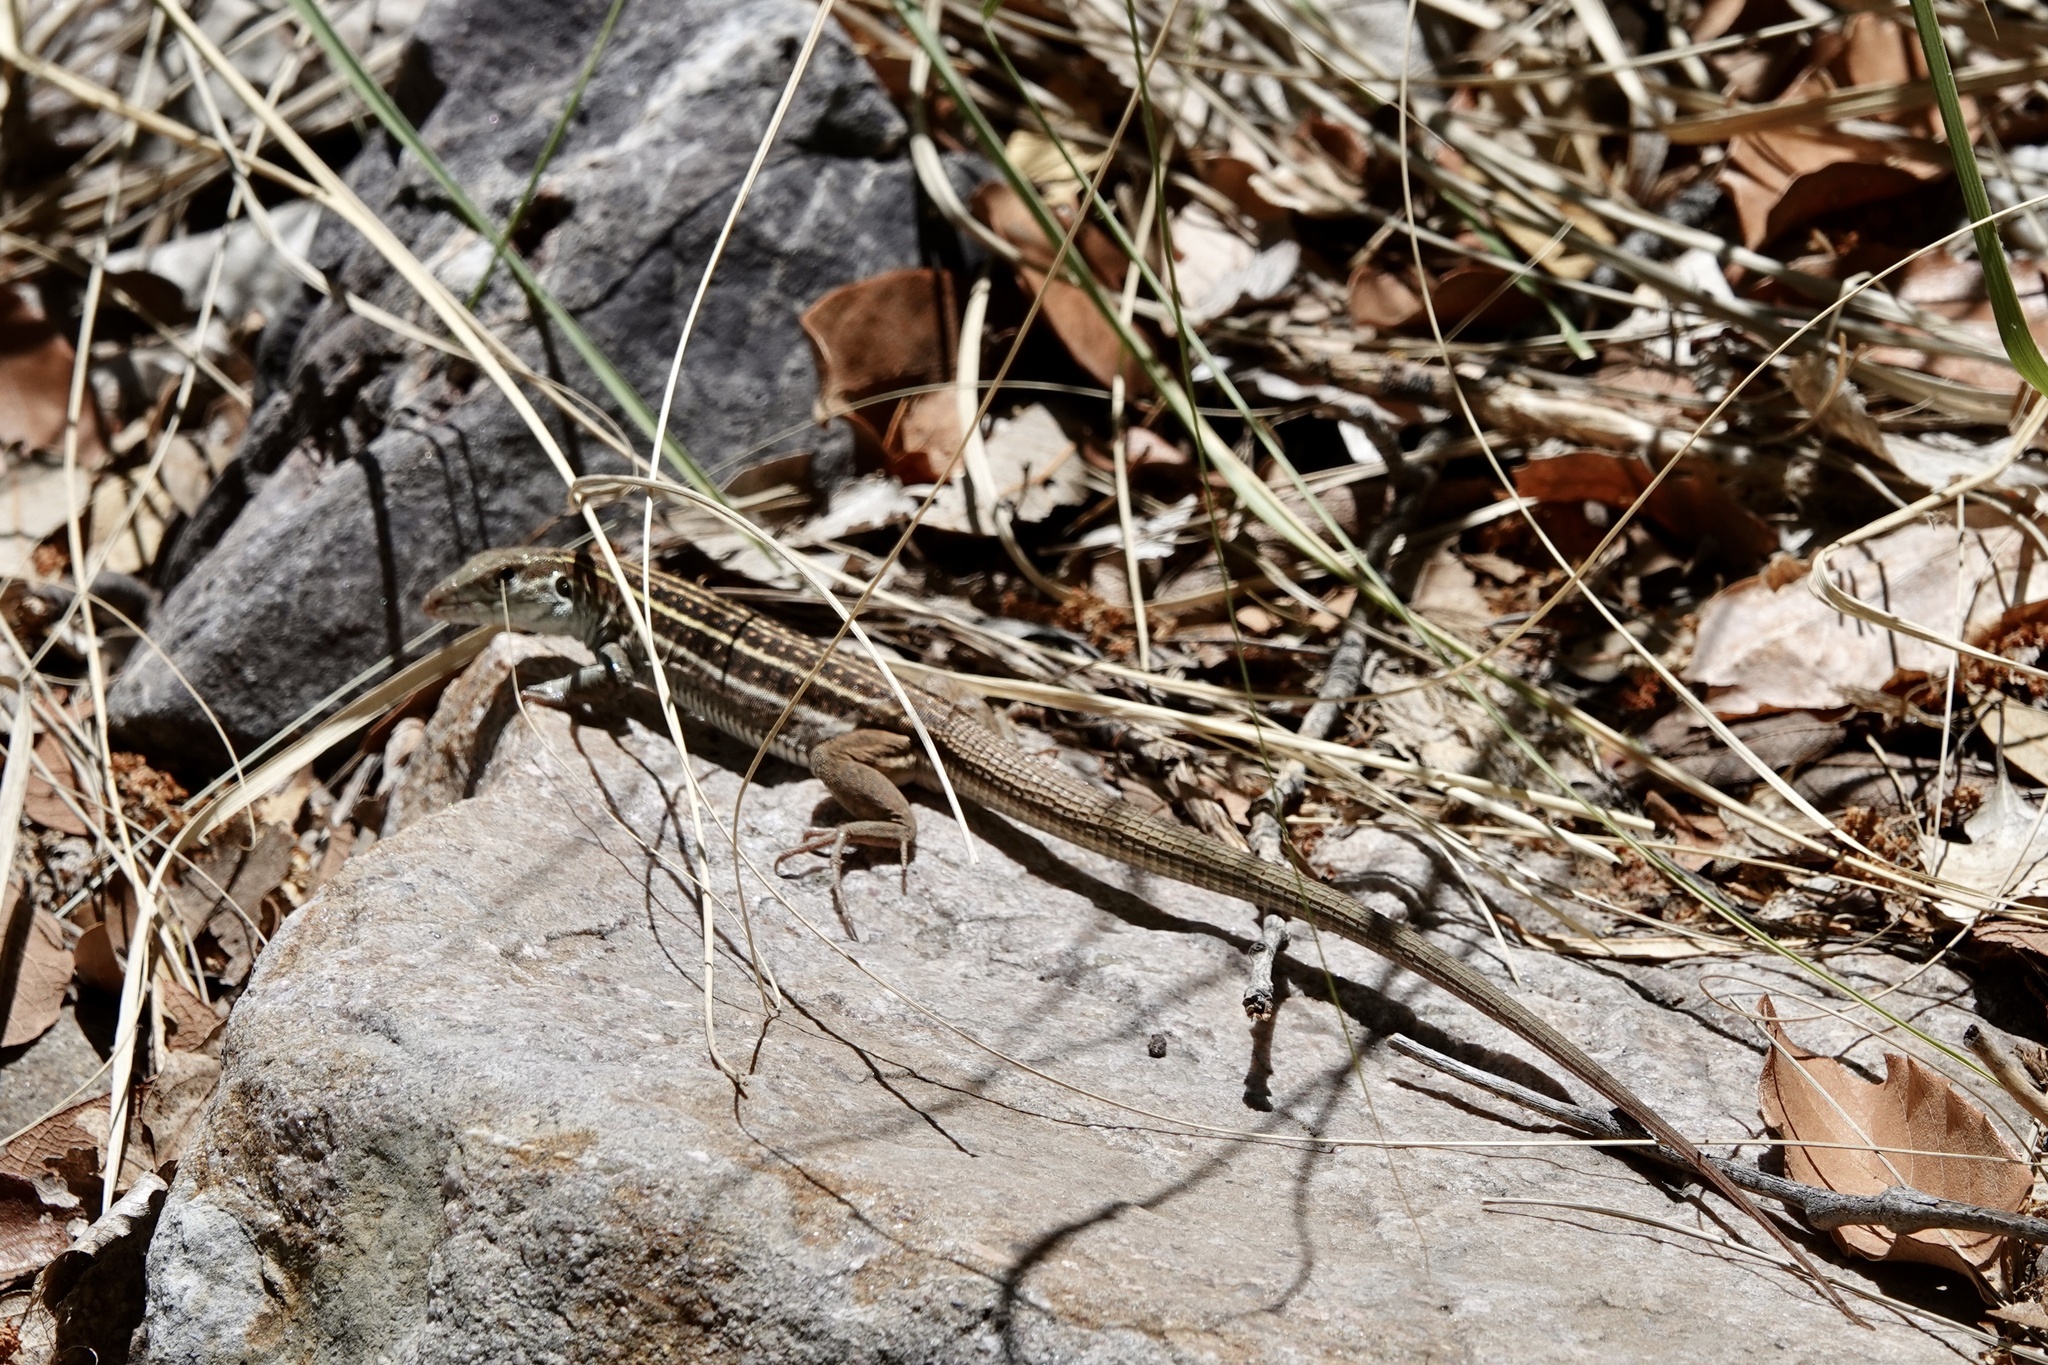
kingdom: Animalia
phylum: Chordata
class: Squamata
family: Teiidae
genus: Aspidoscelis
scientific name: Aspidoscelis sonorae
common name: Sonoran spotted whiptail
